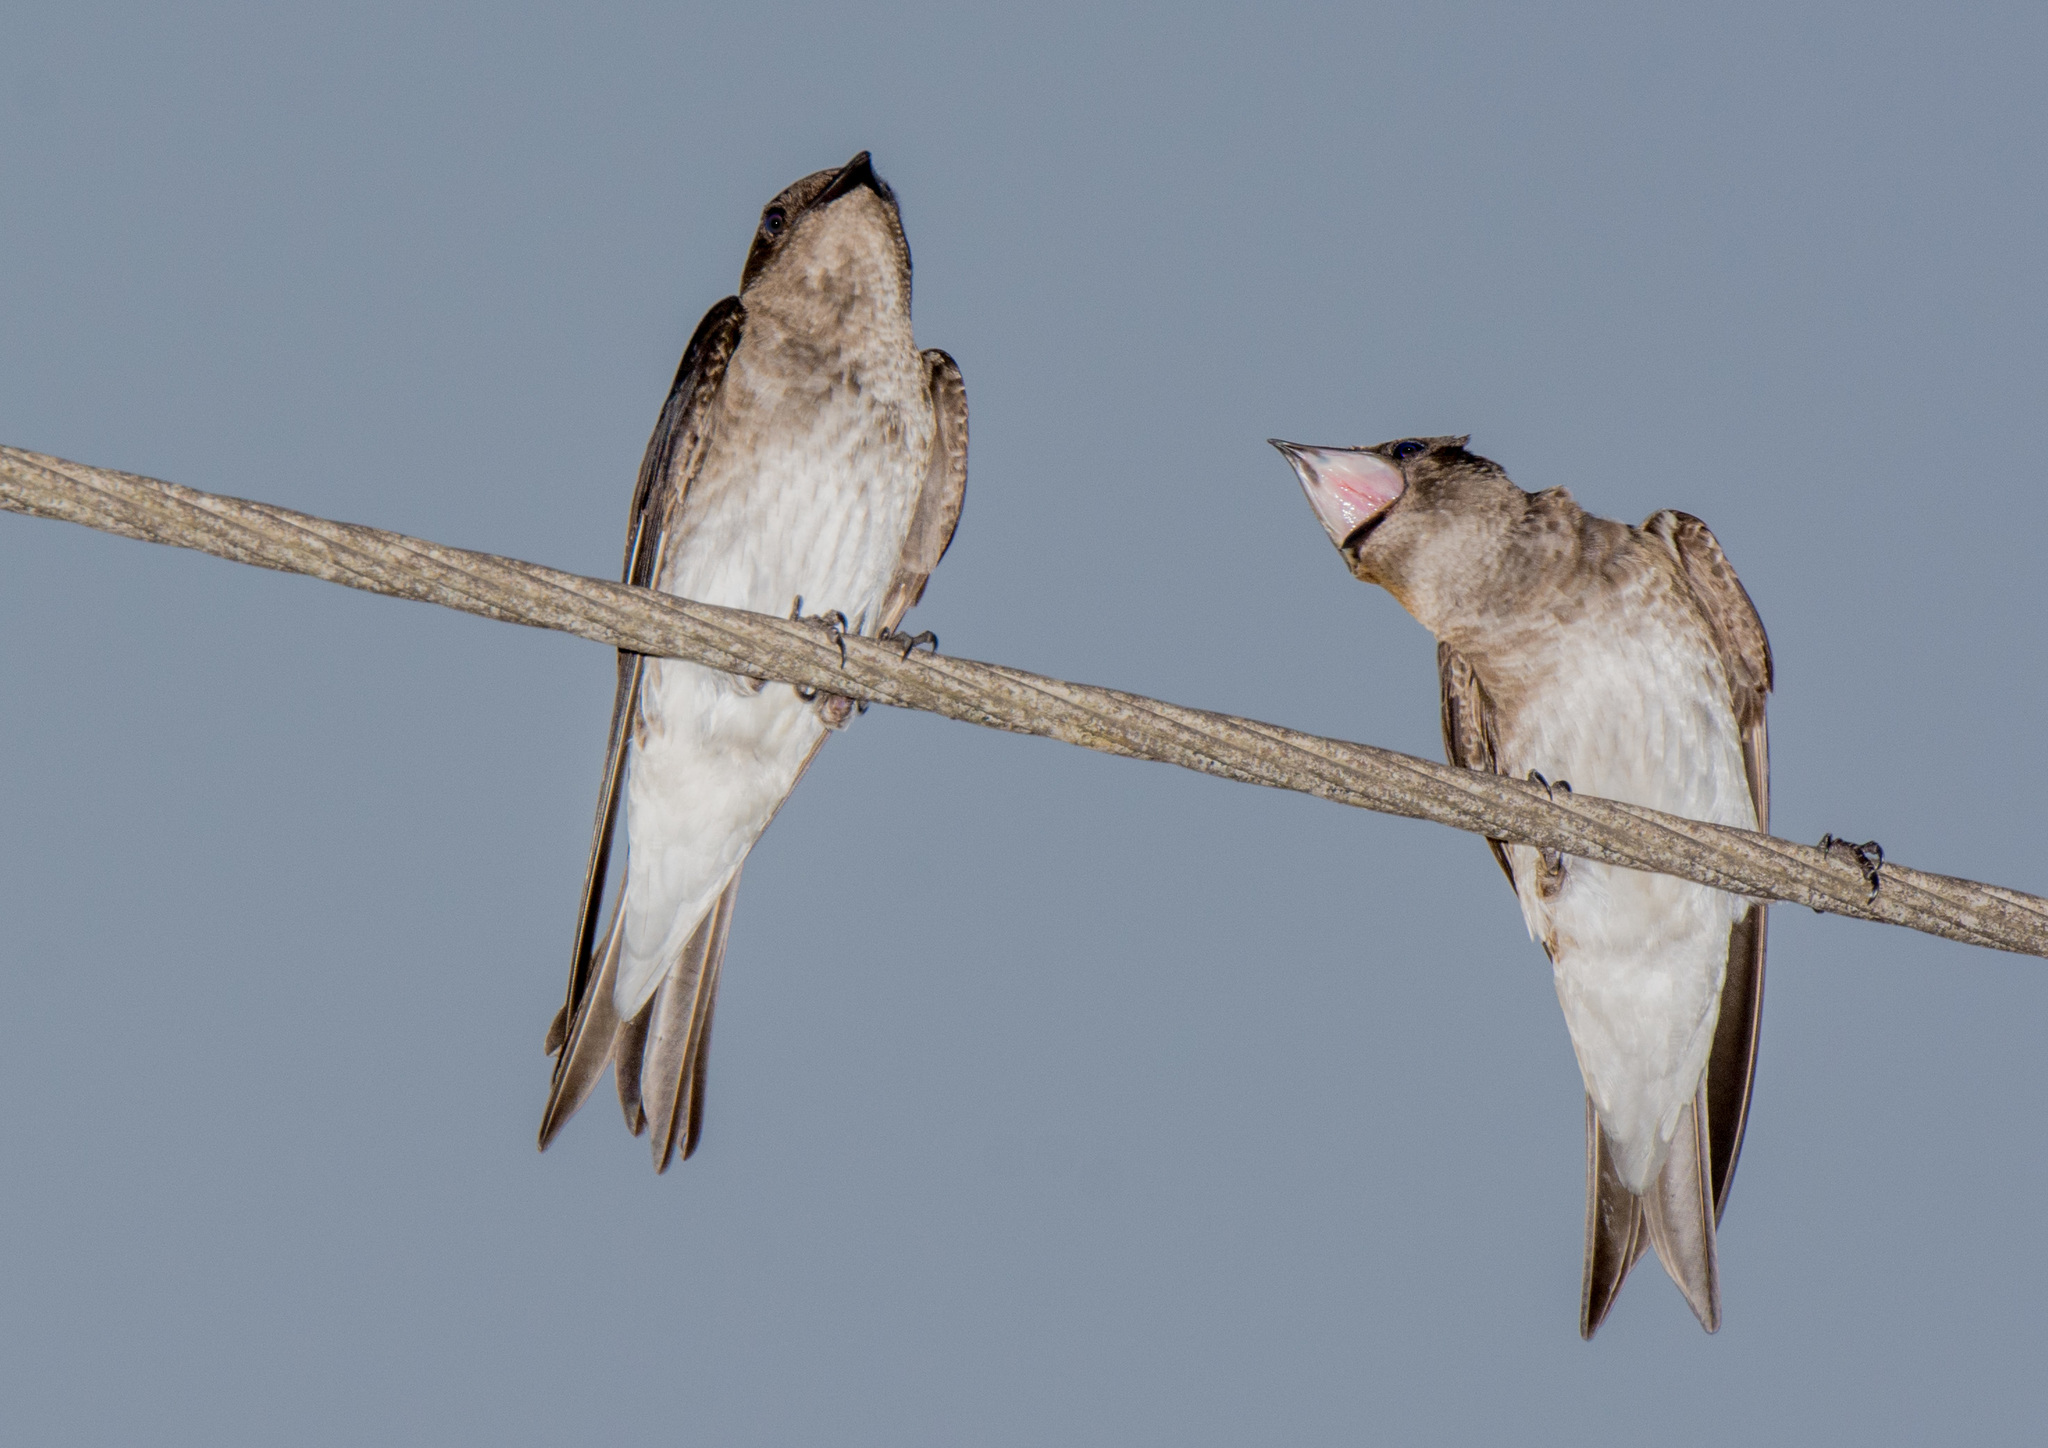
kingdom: Animalia
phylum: Chordata
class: Aves
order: Passeriformes
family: Hirundinidae
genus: Progne
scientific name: Progne chalybea
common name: Grey-breasted martin
